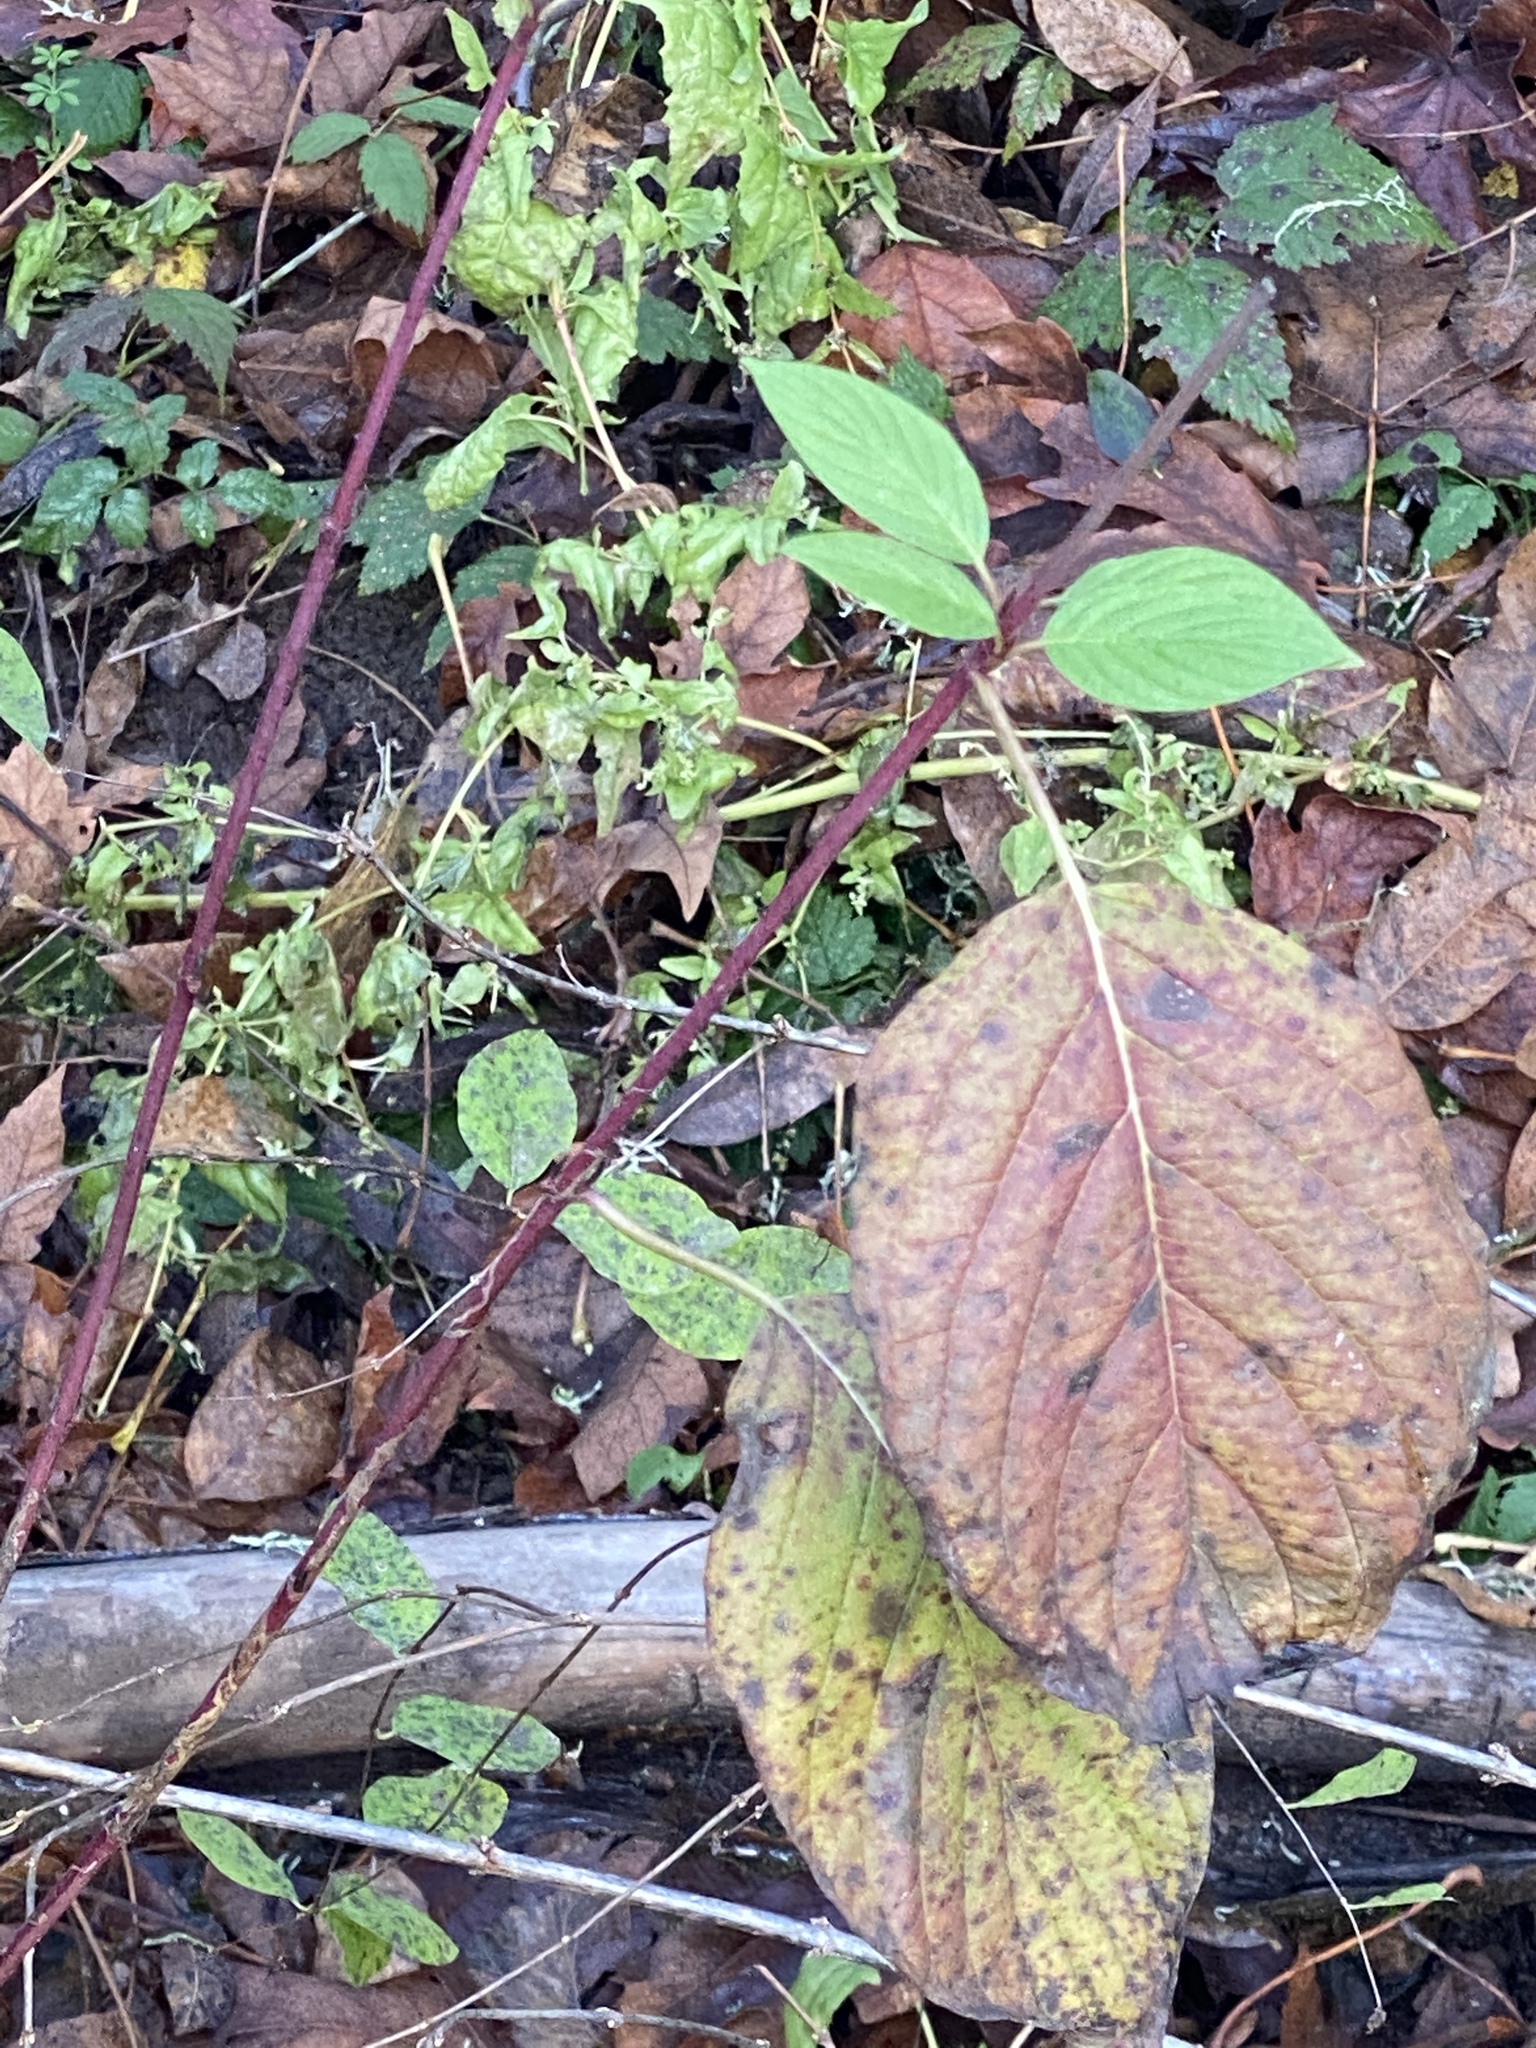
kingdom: Plantae
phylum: Tracheophyta
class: Magnoliopsida
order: Cornales
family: Cornaceae
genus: Cornus
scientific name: Cornus sericea
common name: Red-osier dogwood
